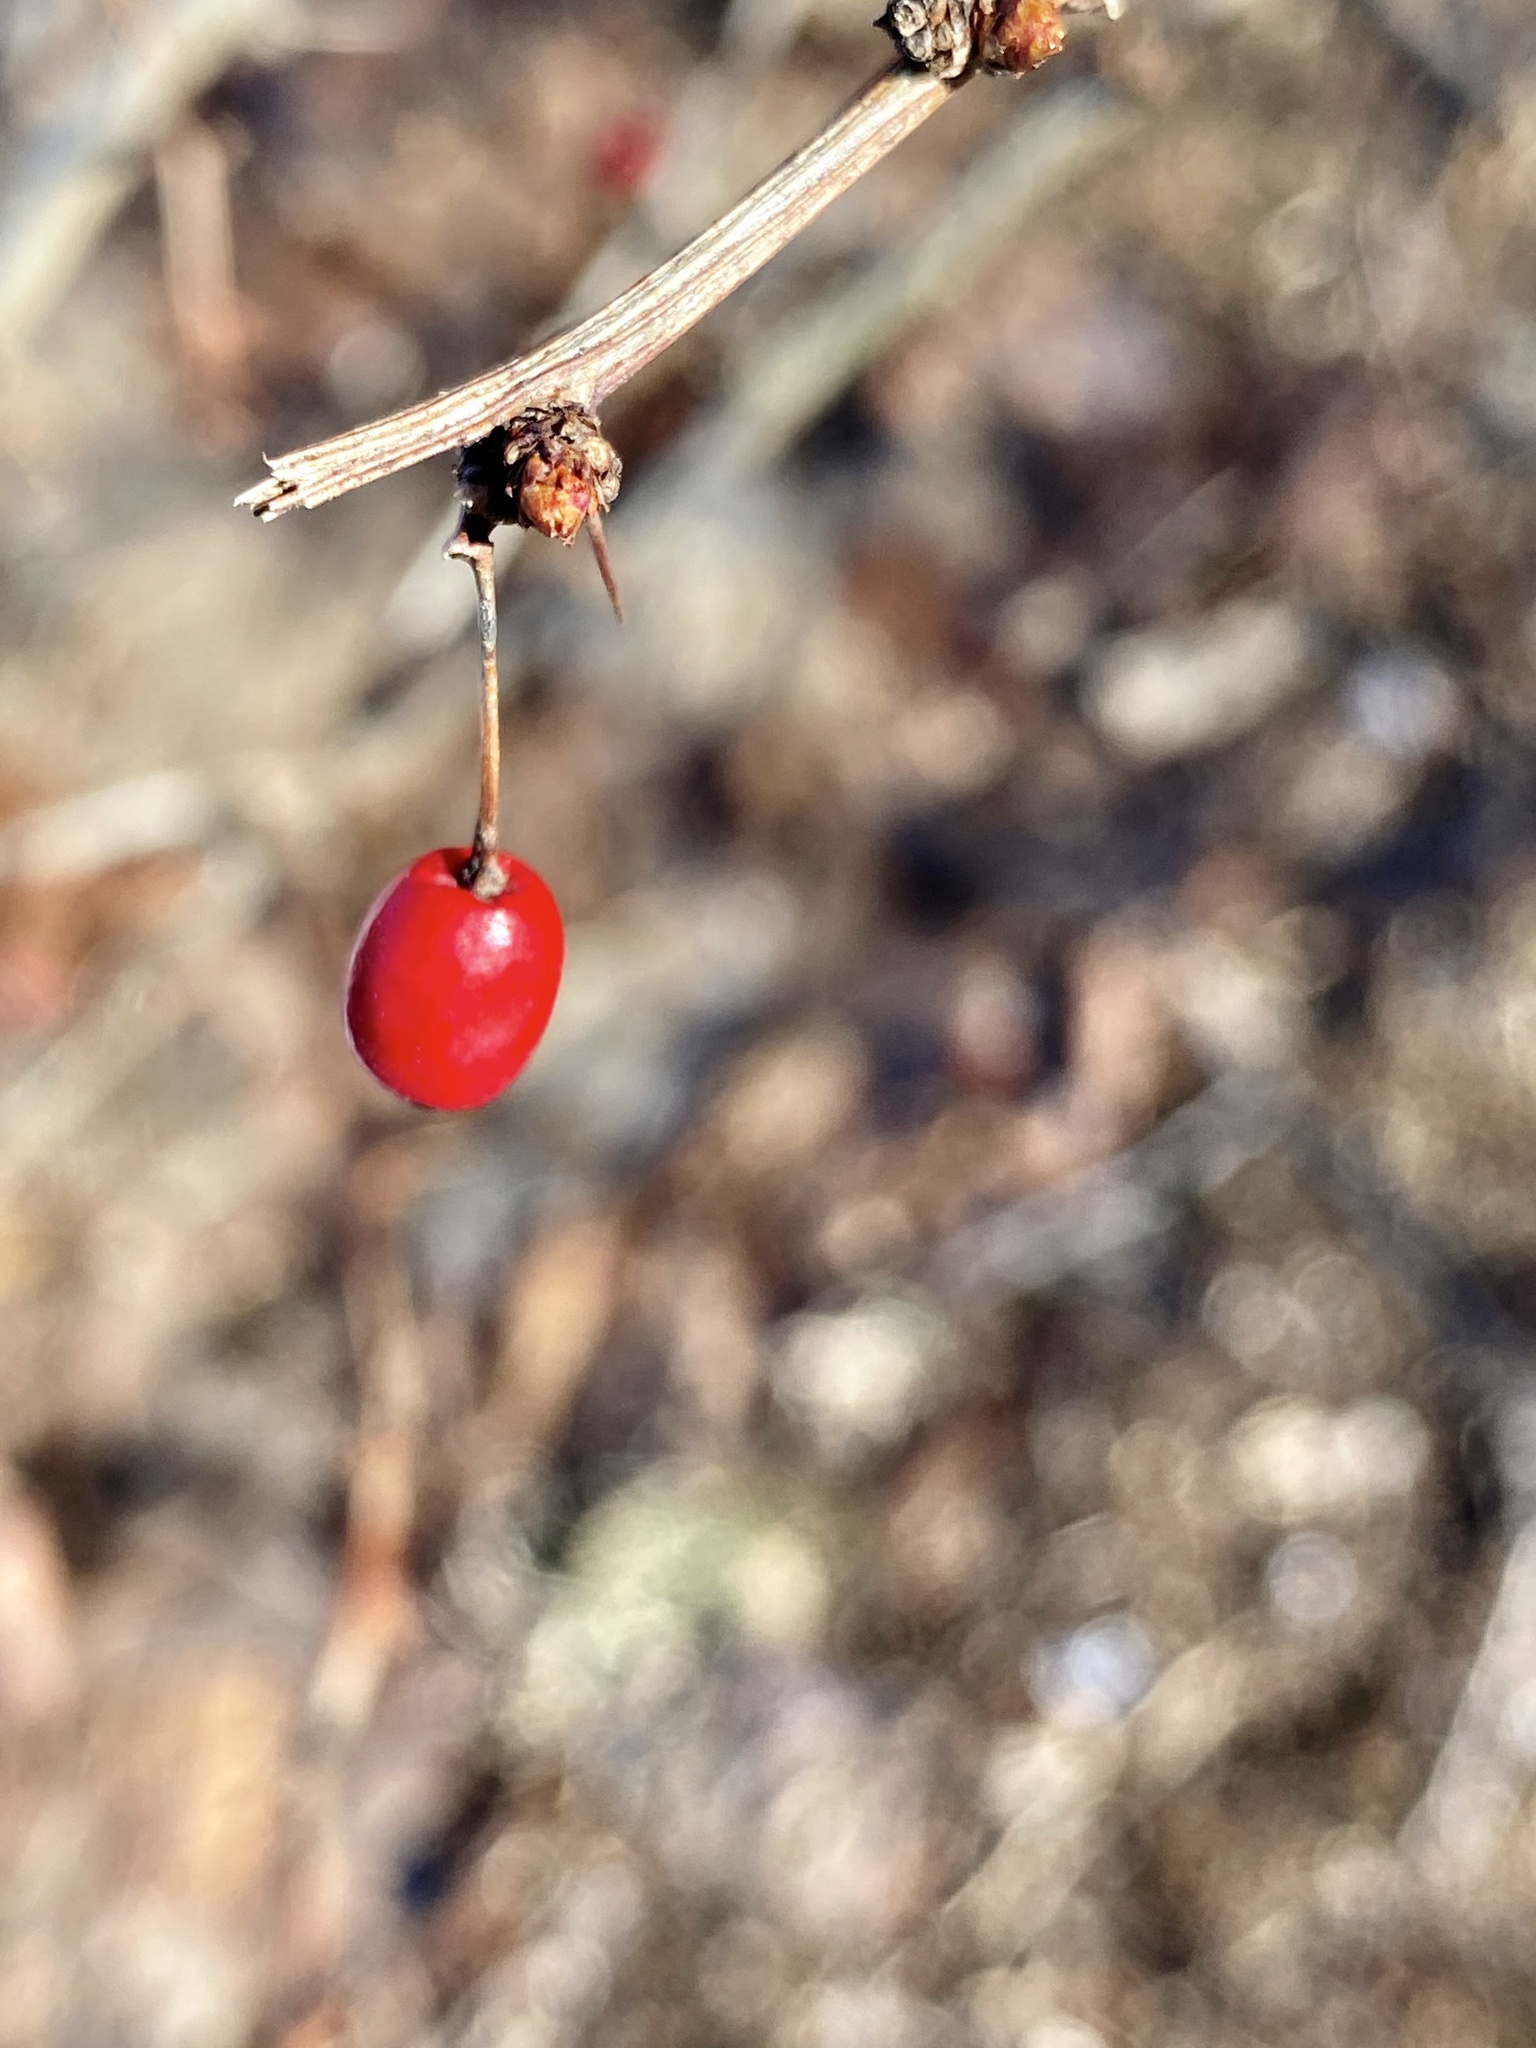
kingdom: Plantae
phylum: Tracheophyta
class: Magnoliopsida
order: Ranunculales
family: Berberidaceae
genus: Berberis
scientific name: Berberis thunbergii
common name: Japanese barberry
